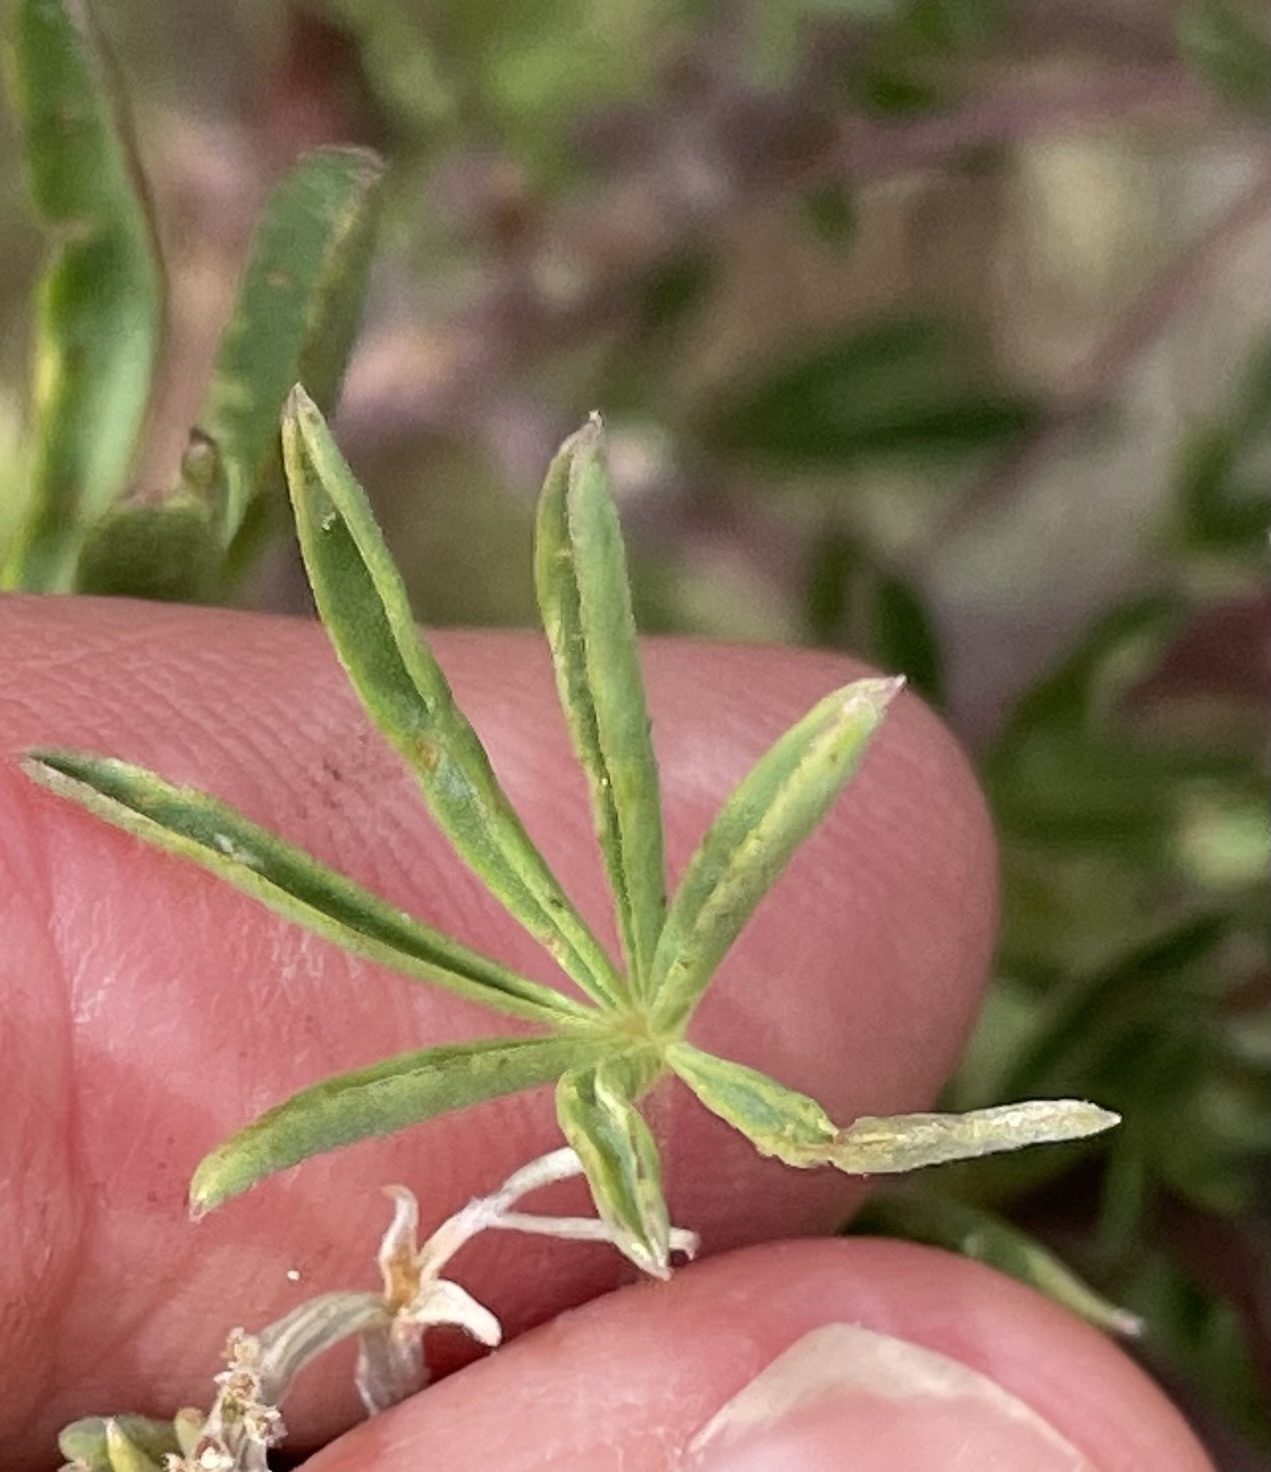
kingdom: Plantae
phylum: Tracheophyta
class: Magnoliopsida
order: Fabales
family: Fabaceae
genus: Lupinus
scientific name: Lupinus arboreus
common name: Yellow bush lupine
